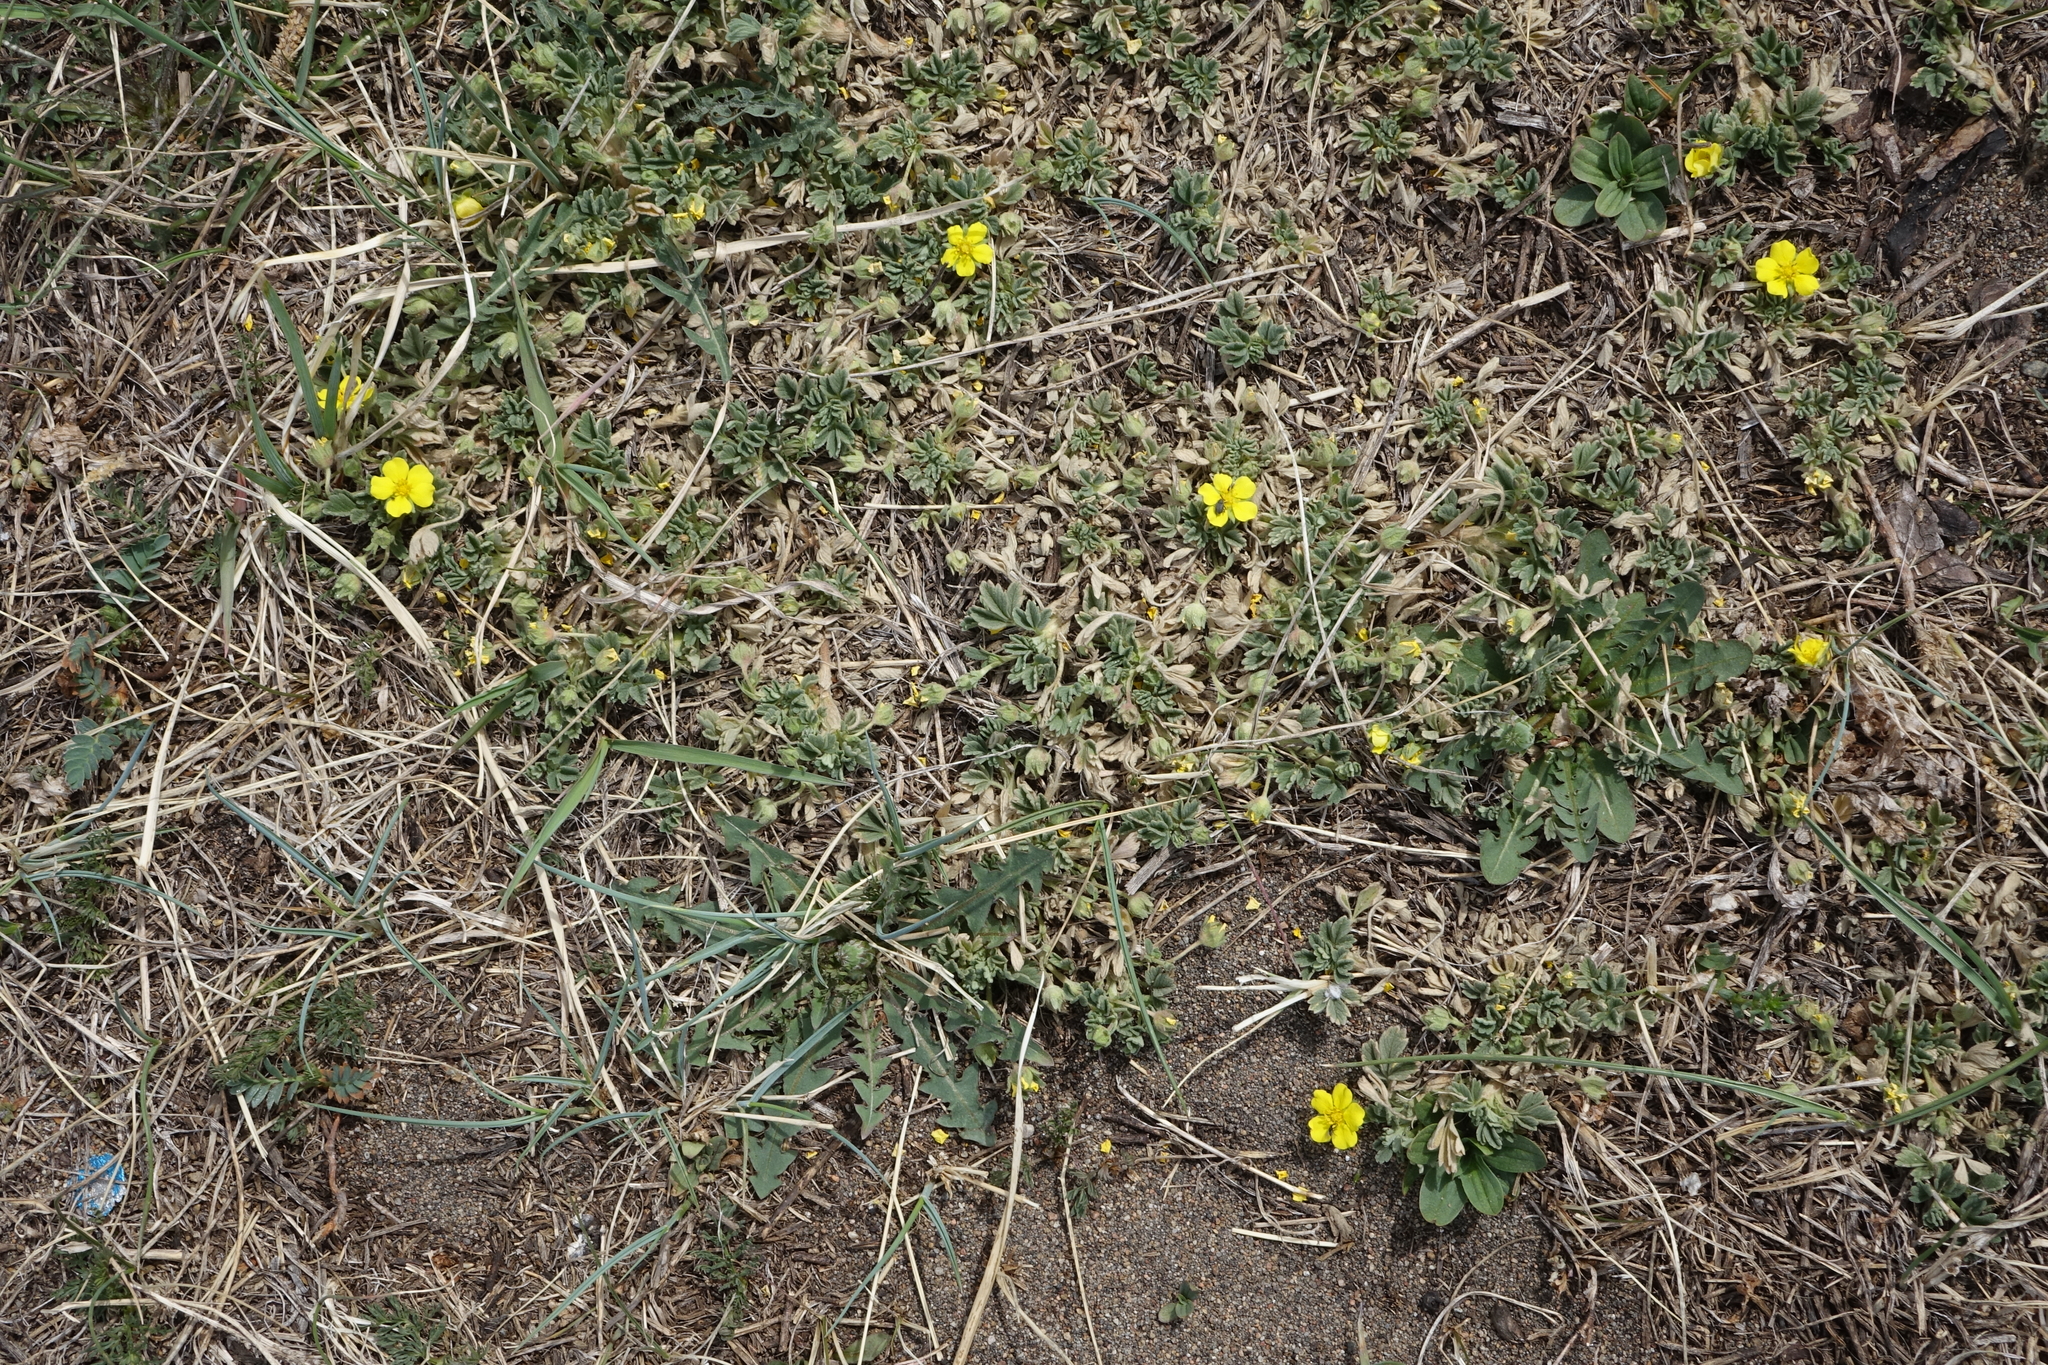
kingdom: Plantae
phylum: Tracheophyta
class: Magnoliopsida
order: Rosales
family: Rosaceae
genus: Potentilla
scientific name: Potentilla acaulis
